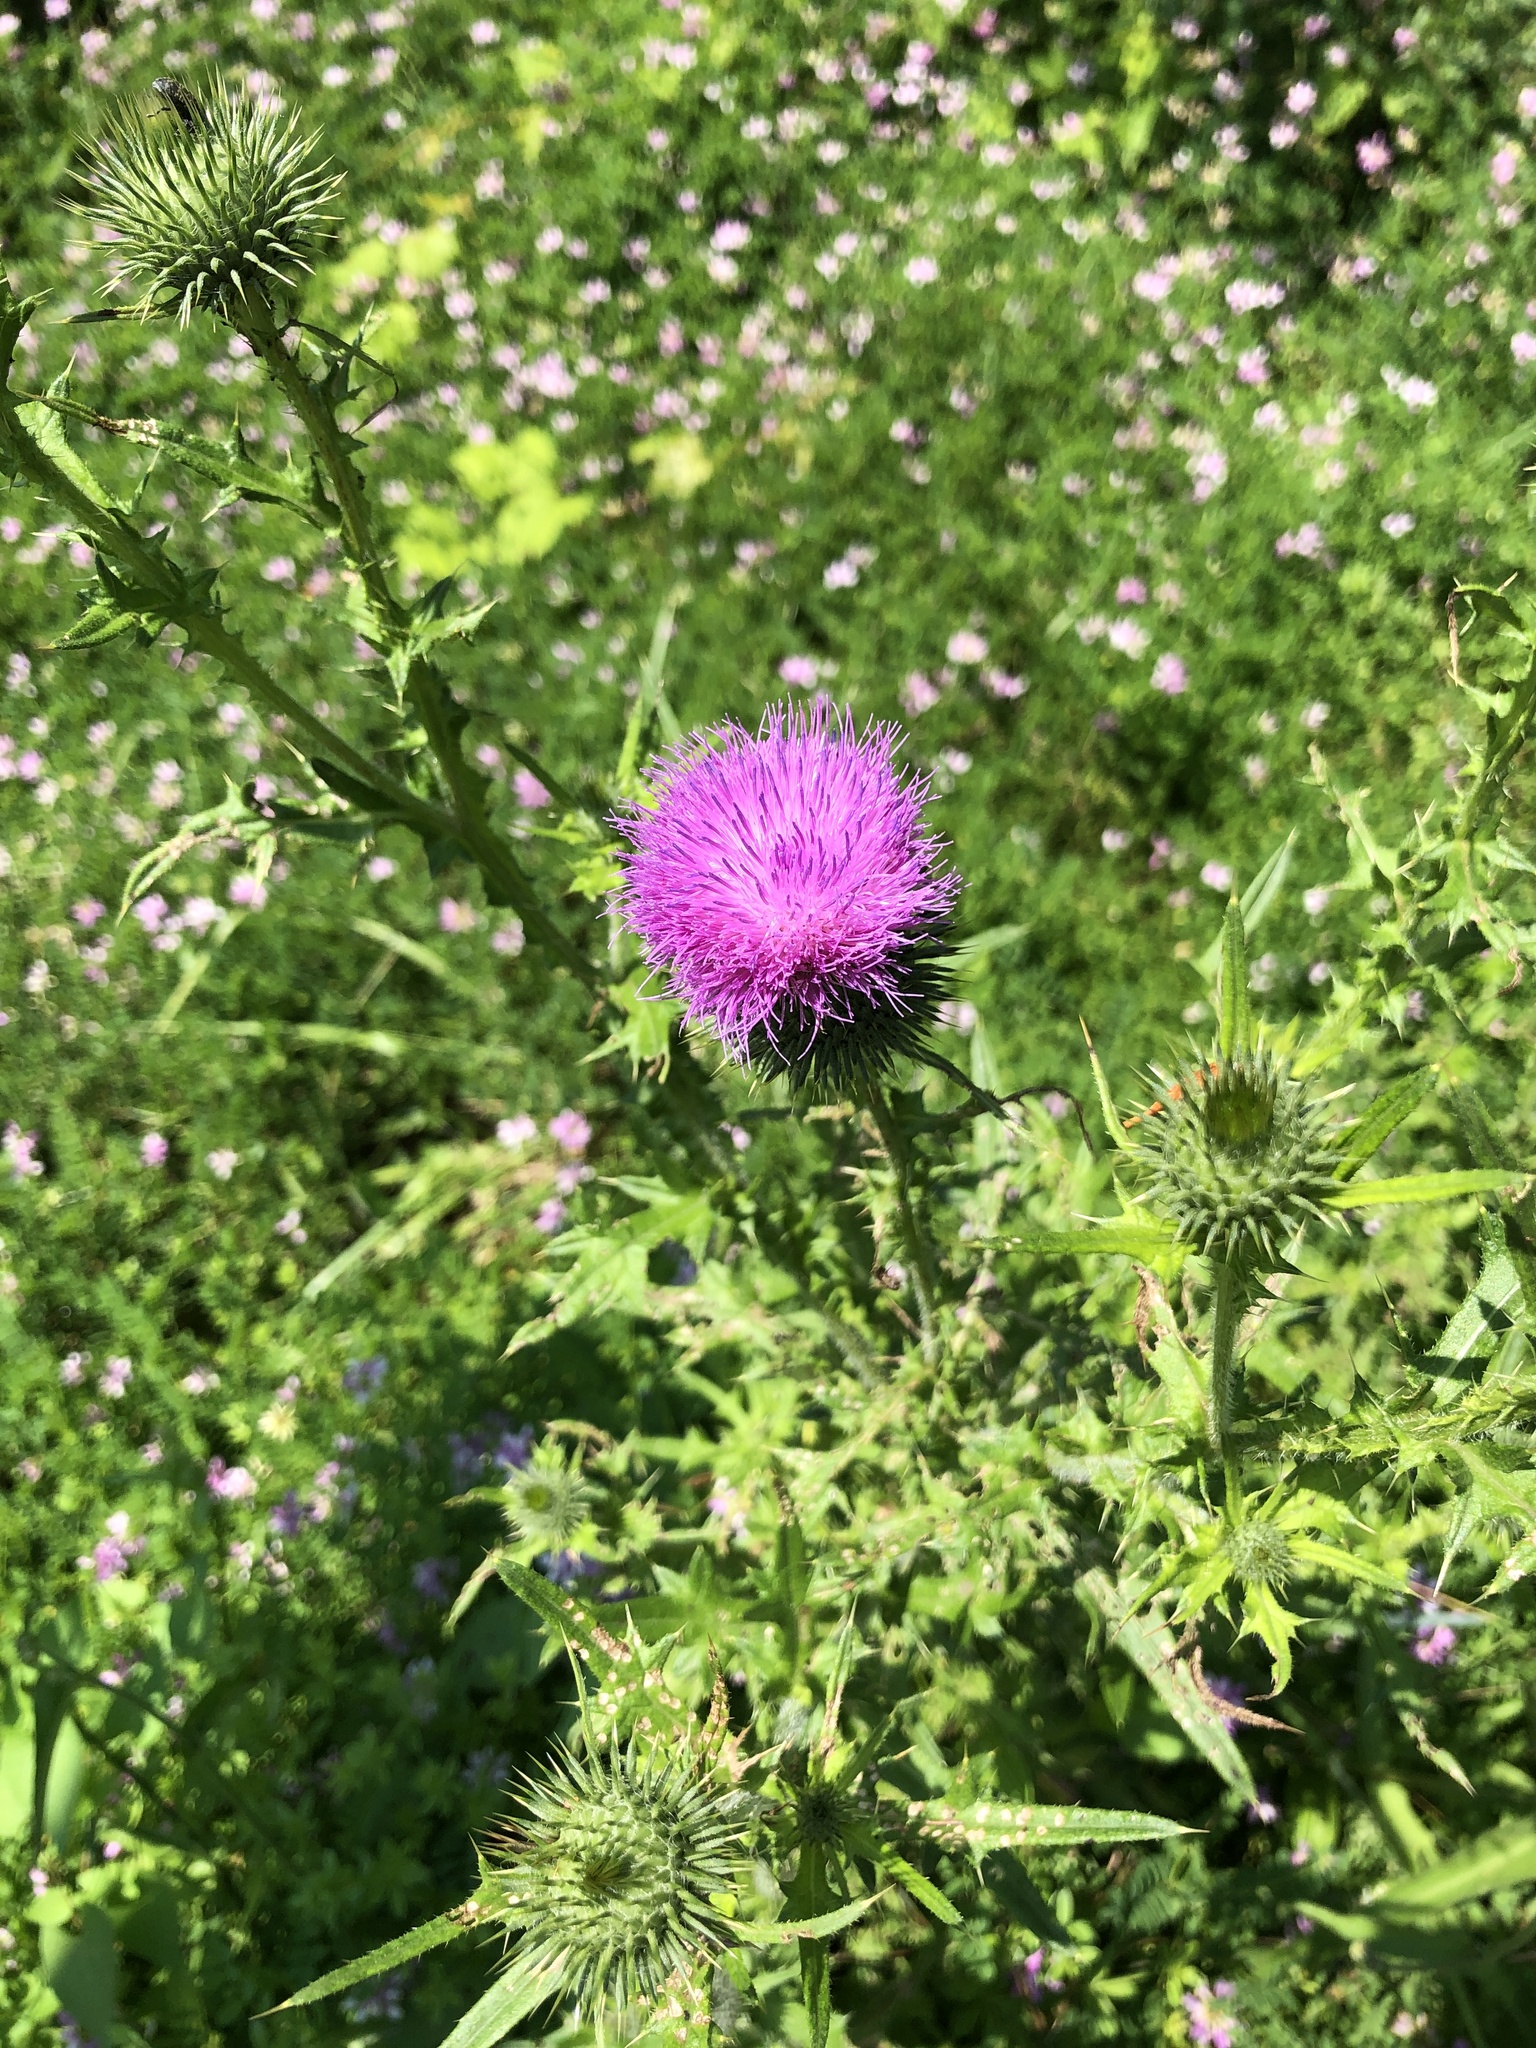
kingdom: Plantae
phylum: Tracheophyta
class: Magnoliopsida
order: Asterales
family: Asteraceae
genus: Cirsium
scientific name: Cirsium vulgare
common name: Bull thistle
